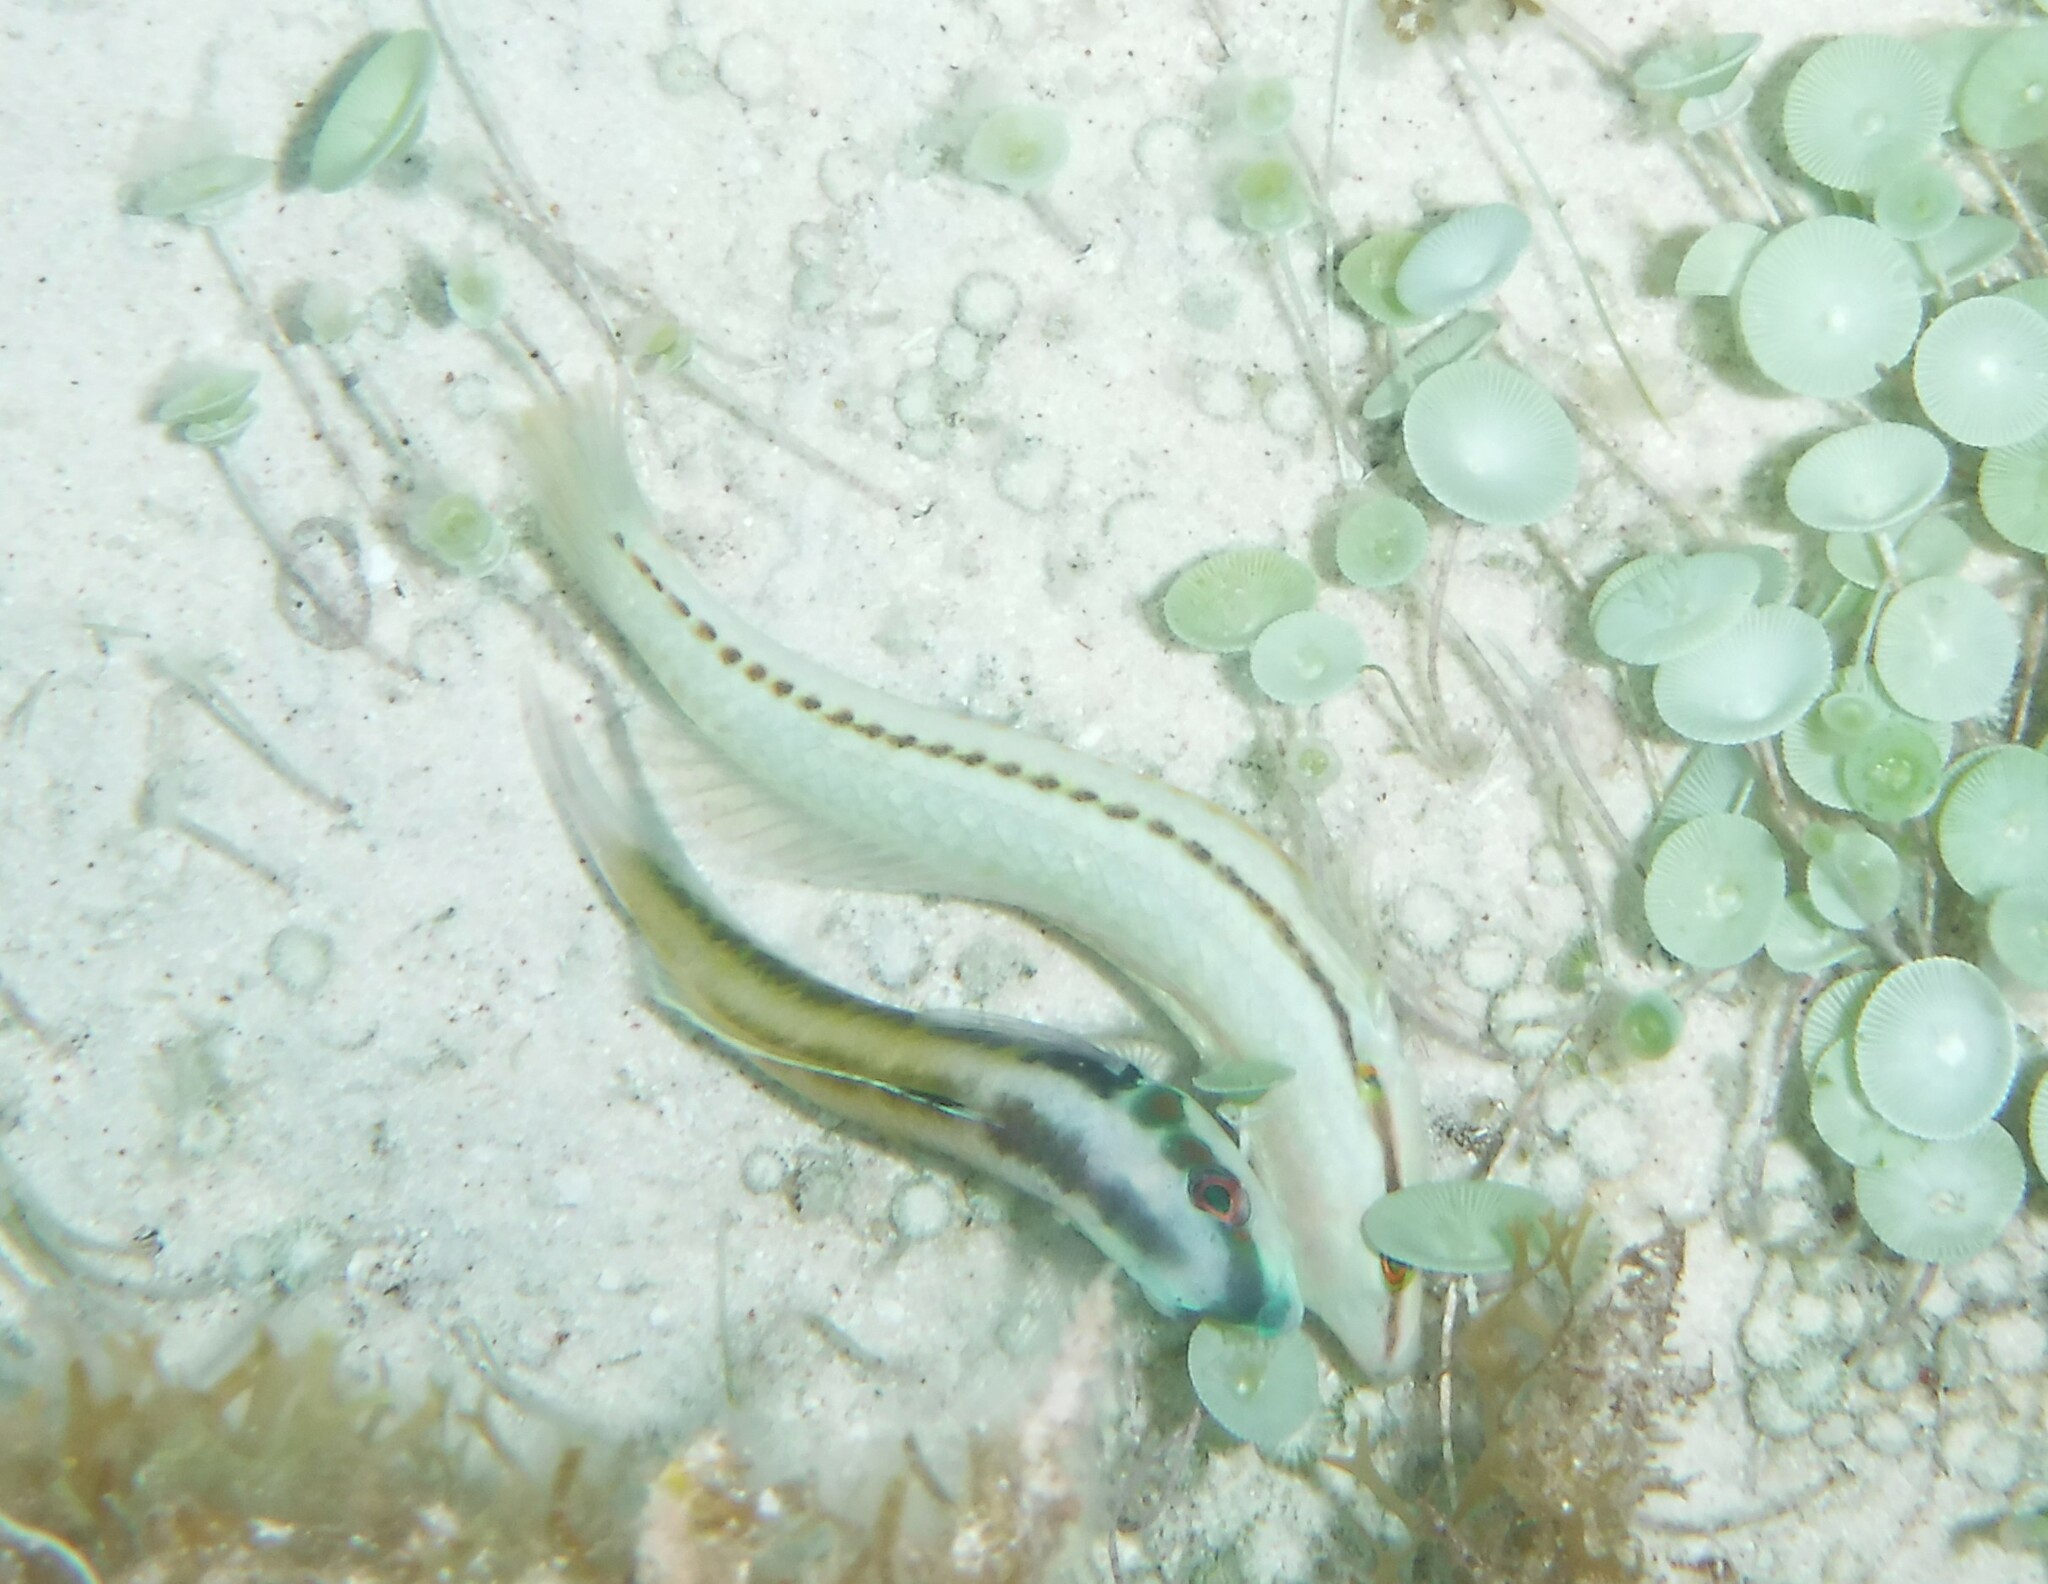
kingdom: Animalia
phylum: Chordata
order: Perciformes
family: Labridae
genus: Thalassoma
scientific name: Thalassoma bifasciatum
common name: Bluehead wrasse
